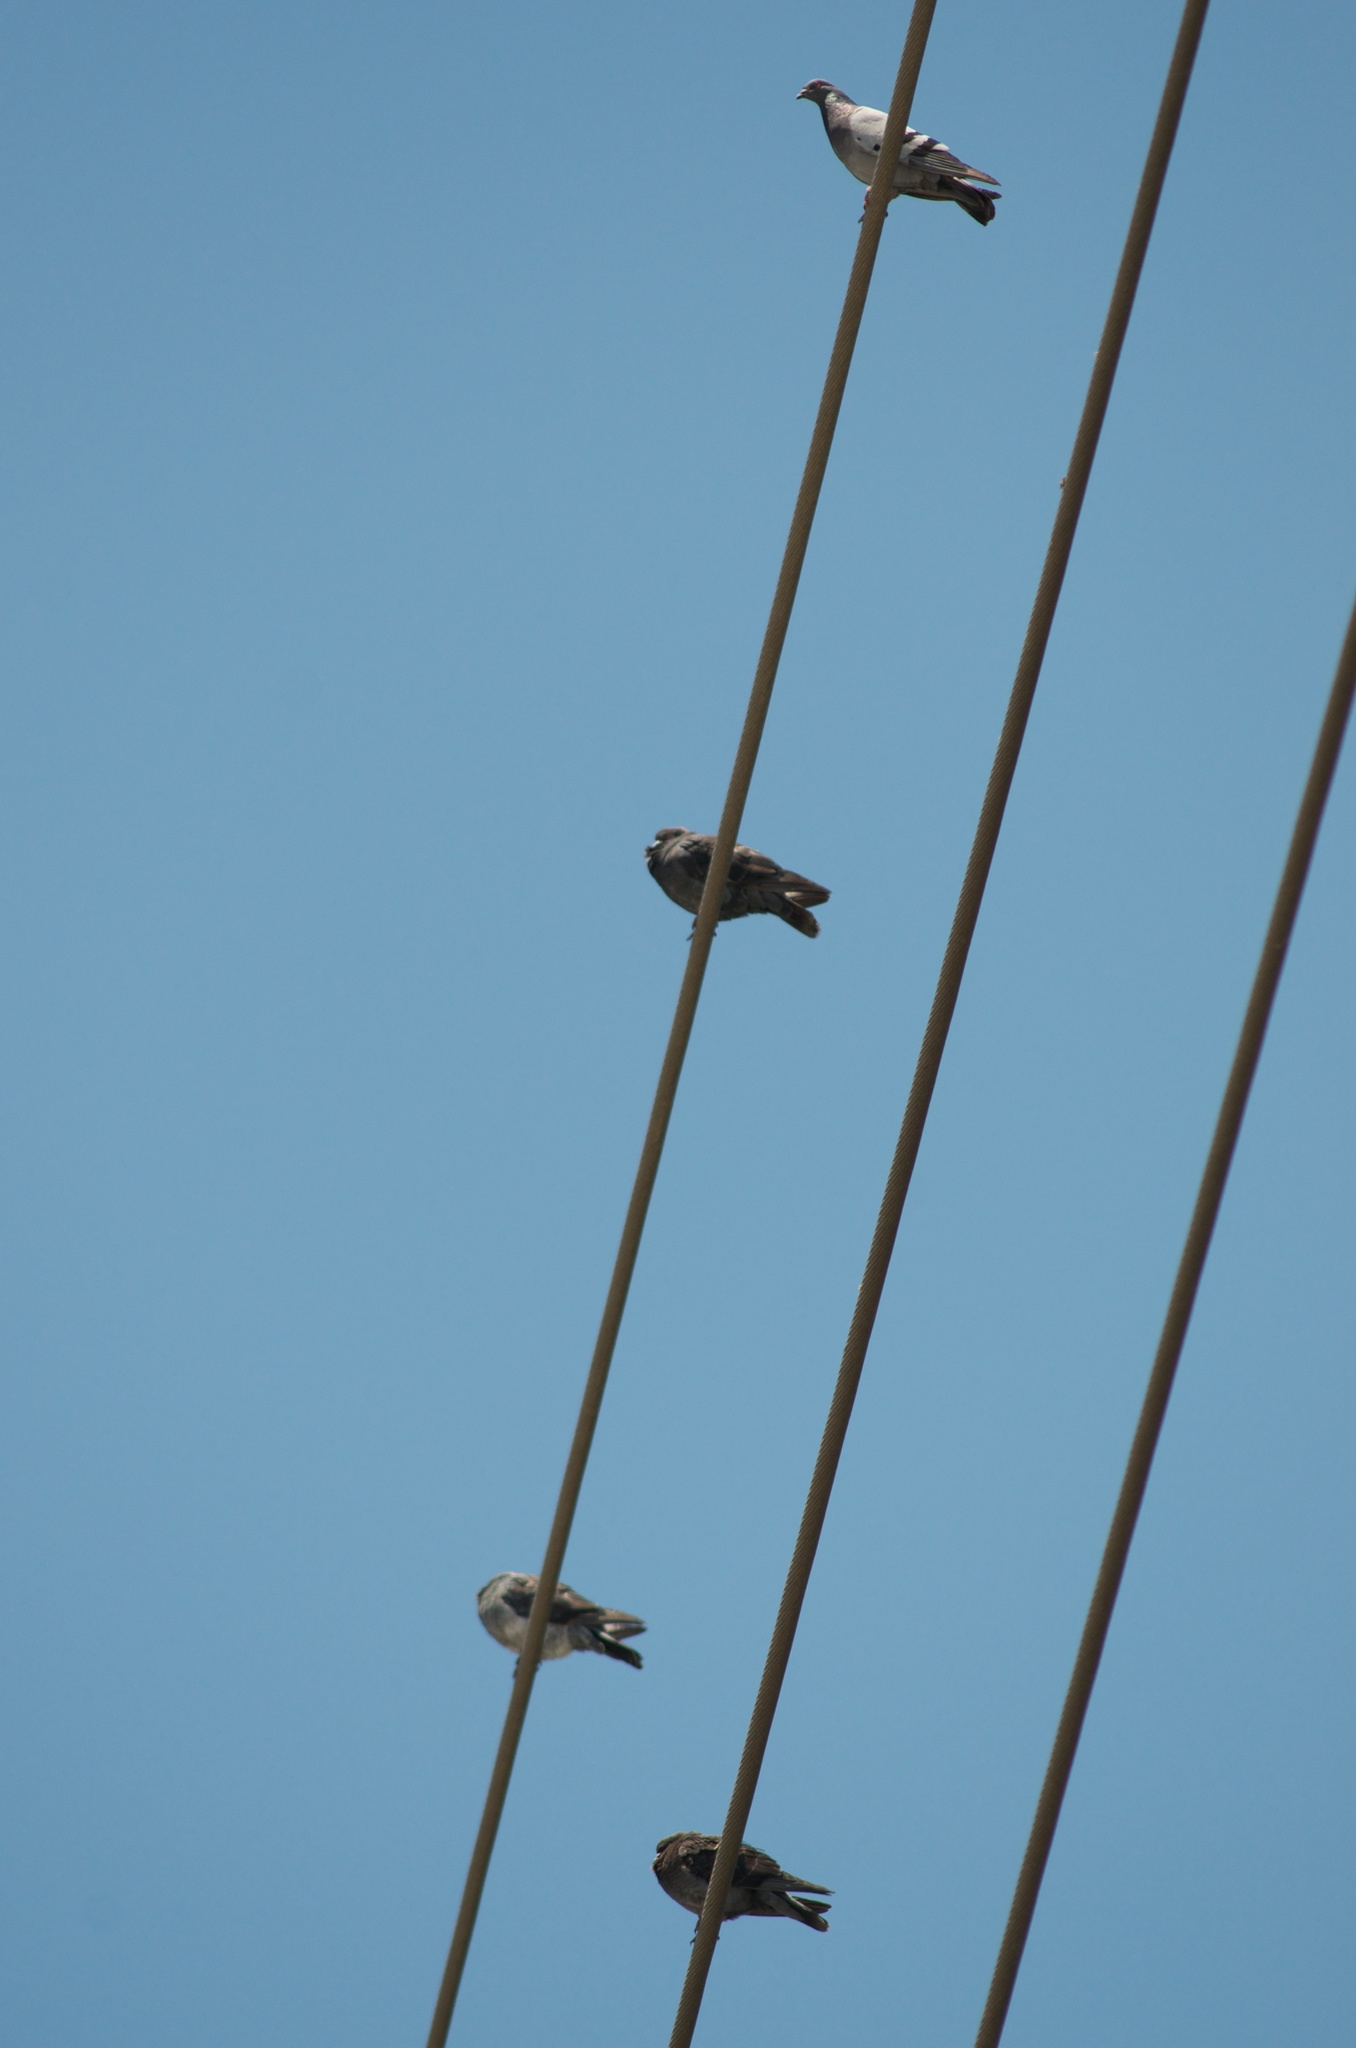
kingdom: Animalia
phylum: Chordata
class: Aves
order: Columbiformes
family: Columbidae
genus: Columba
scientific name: Columba livia
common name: Rock pigeon
